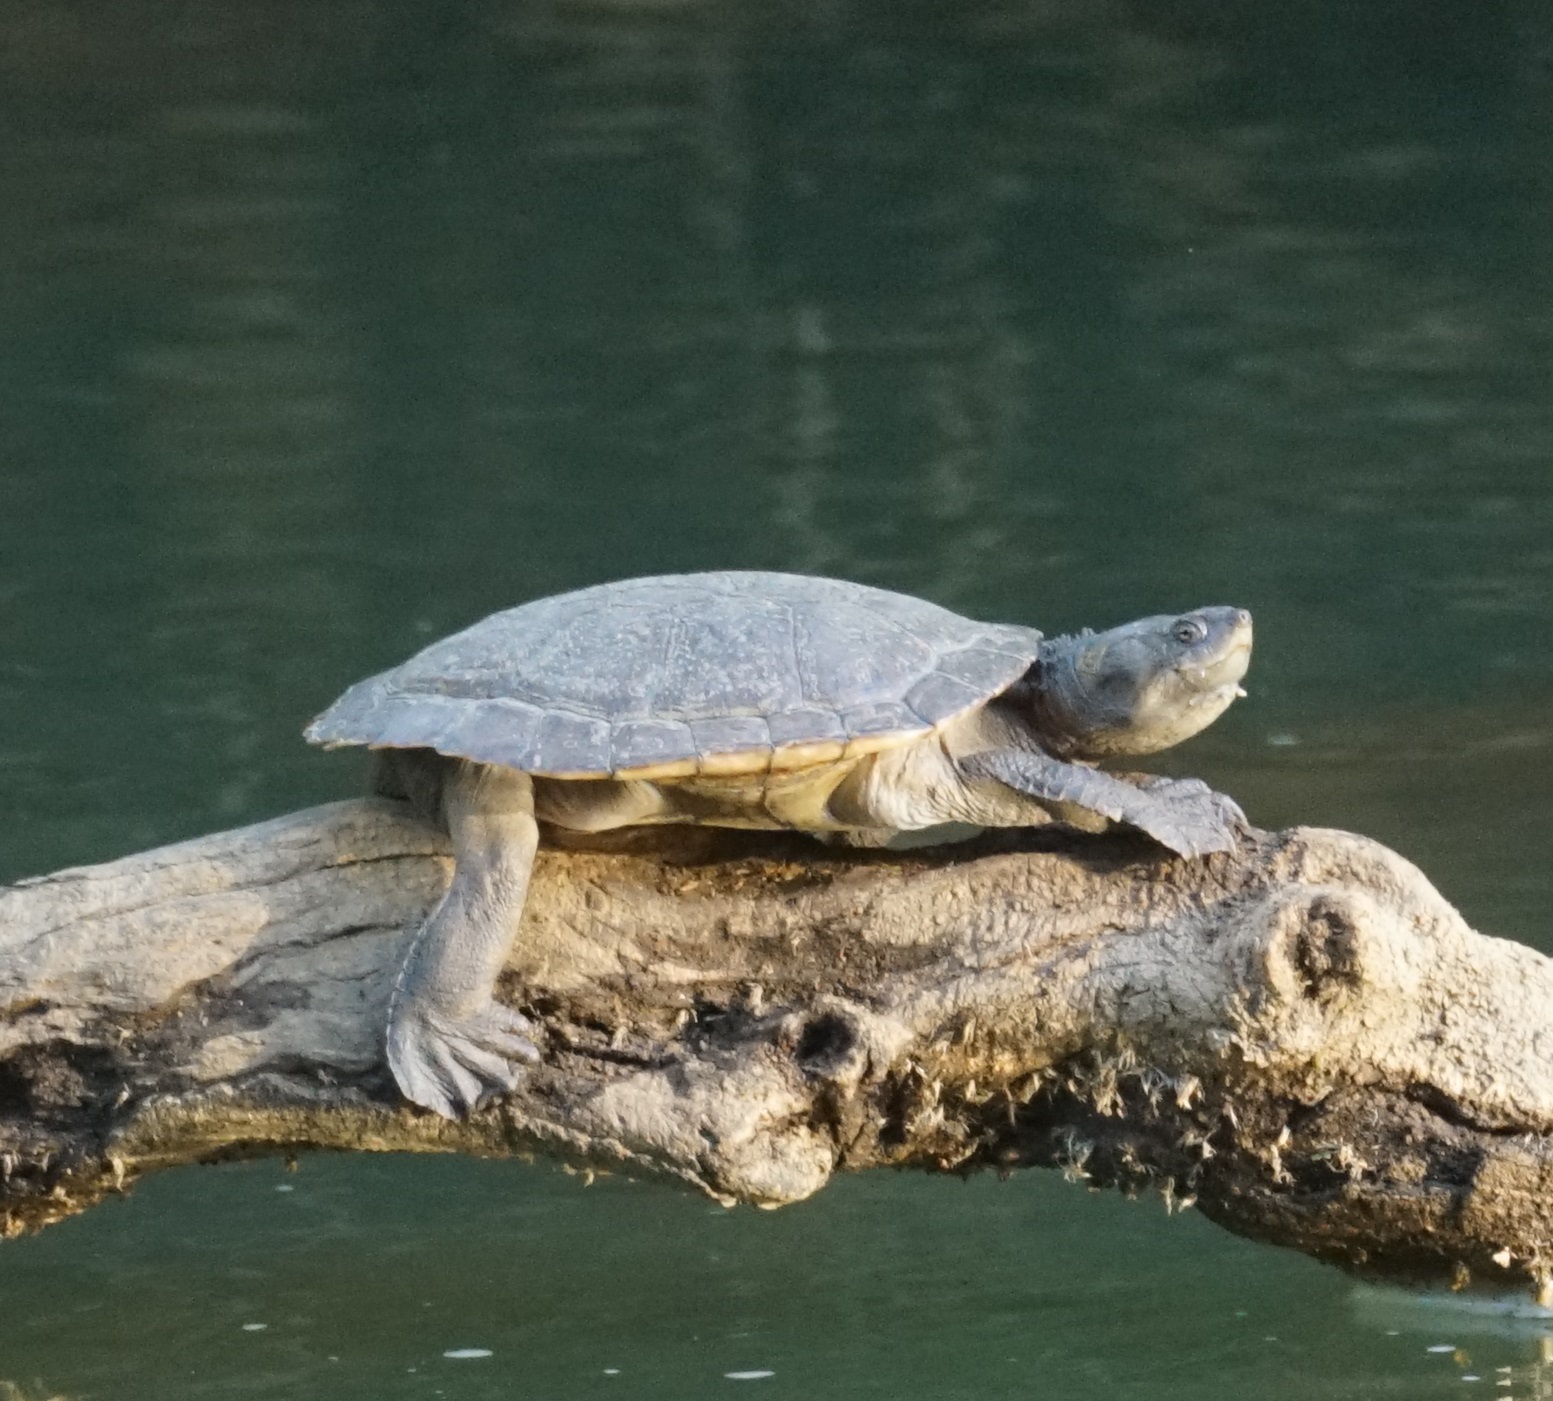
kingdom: Animalia
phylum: Chordata
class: Testudines
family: Chelidae
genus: Myuchelys
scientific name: Myuchelys latisternum
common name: Serrated snapping turtle
